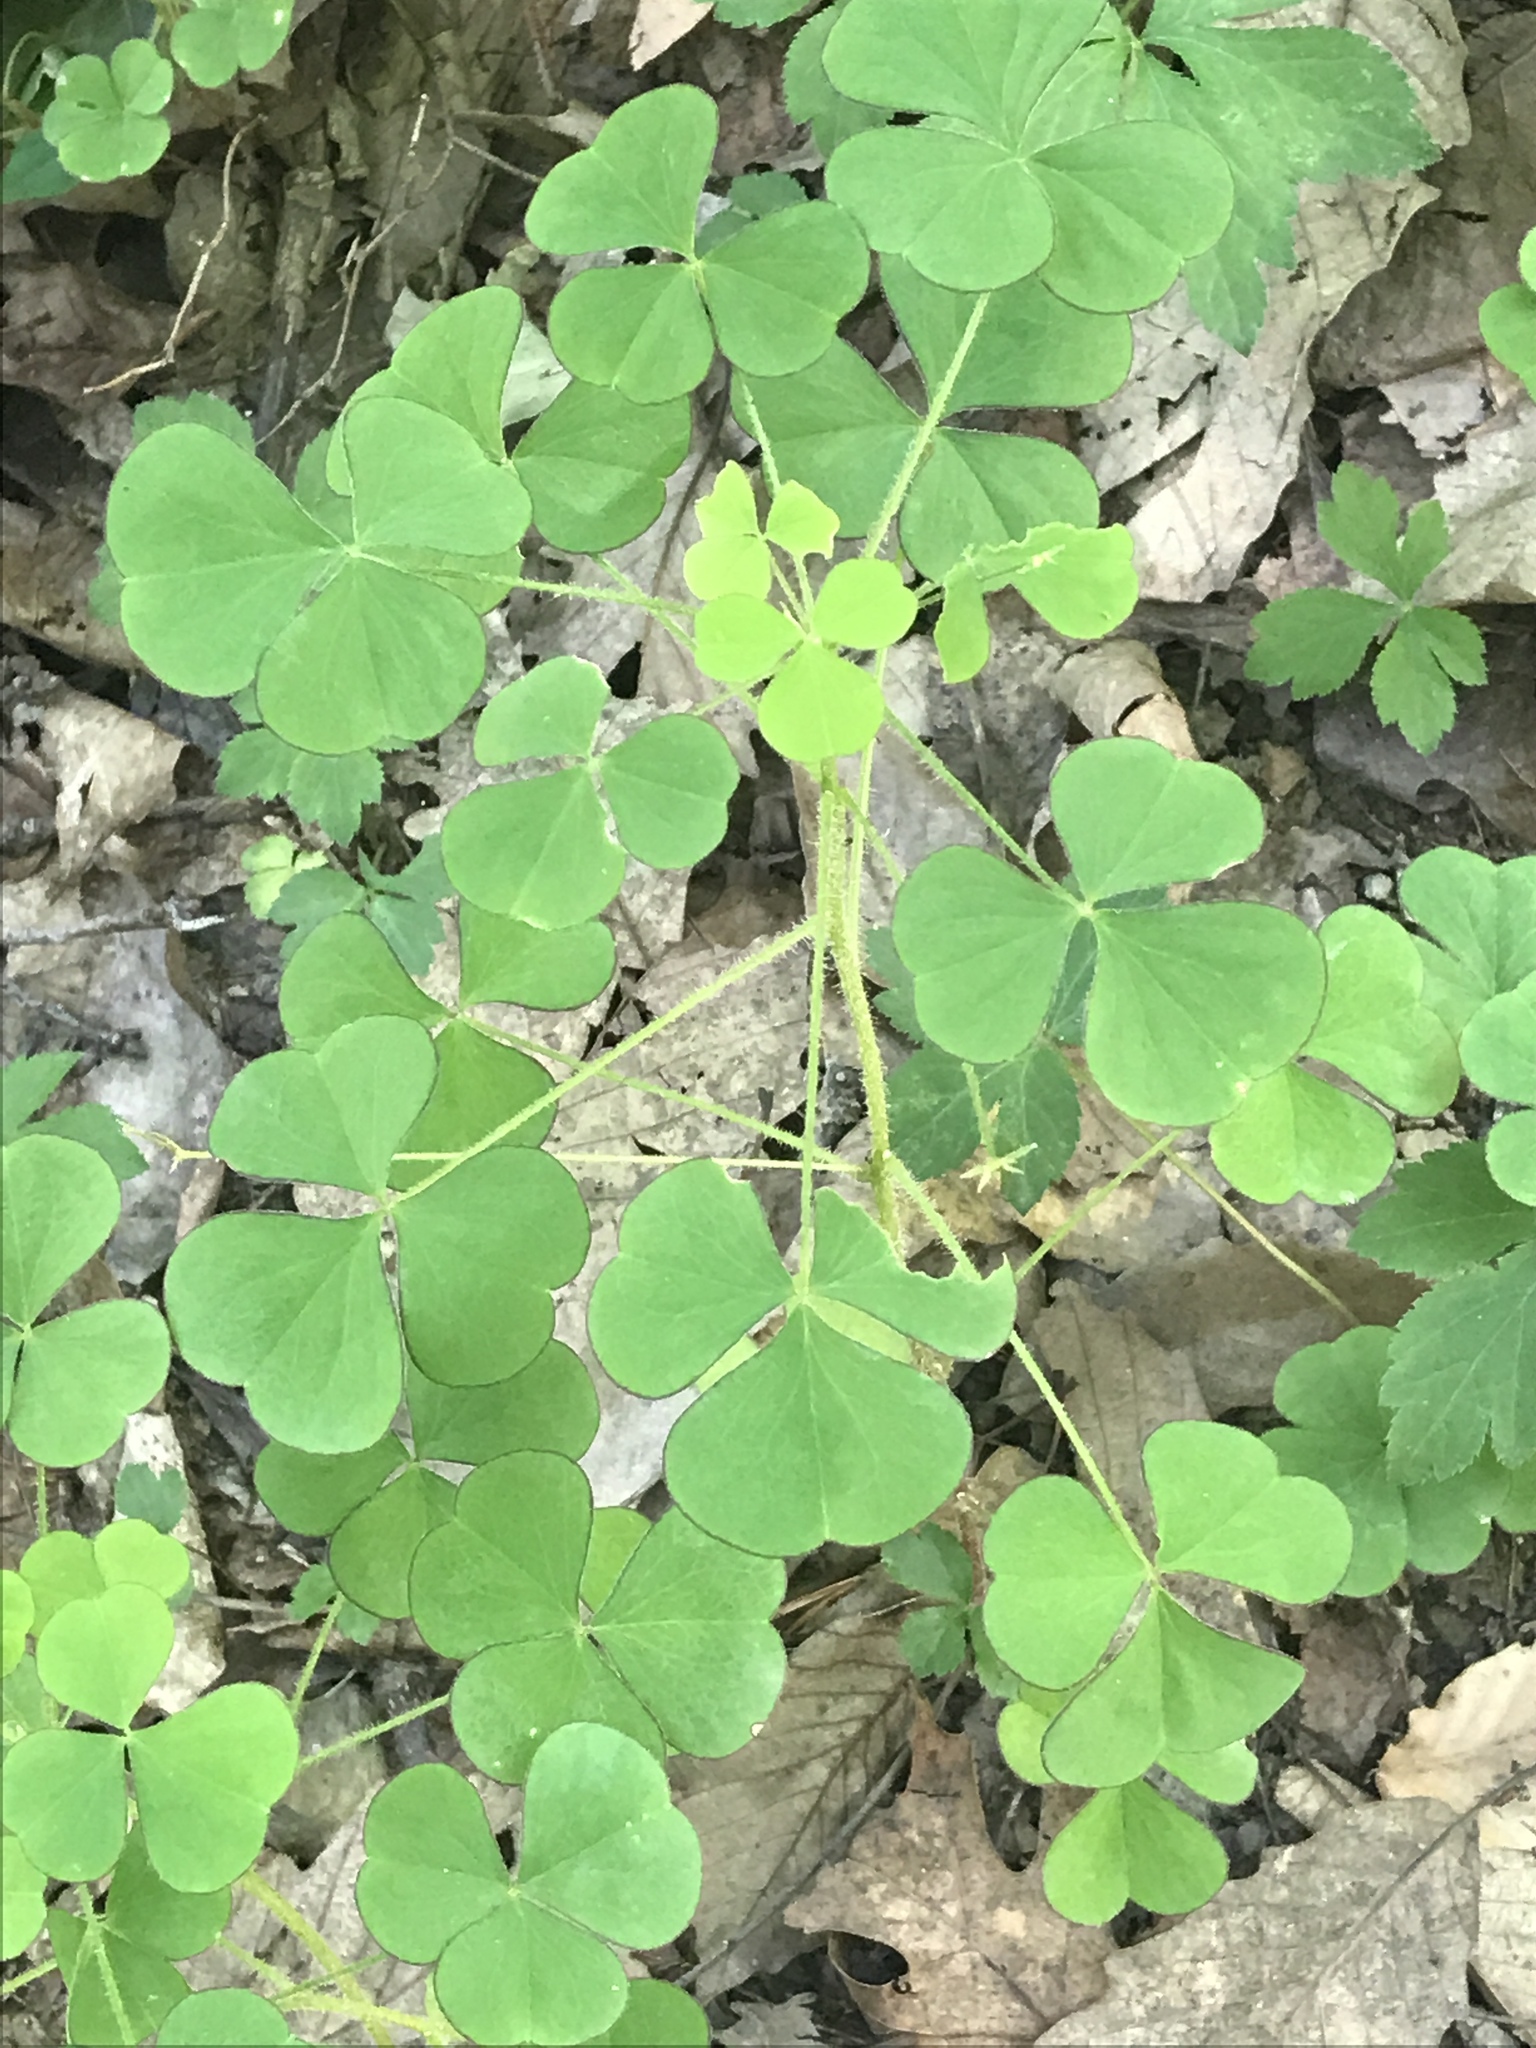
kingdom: Plantae
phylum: Tracheophyta
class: Magnoliopsida
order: Oxalidales
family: Oxalidaceae
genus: Oxalis
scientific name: Oxalis grandis
